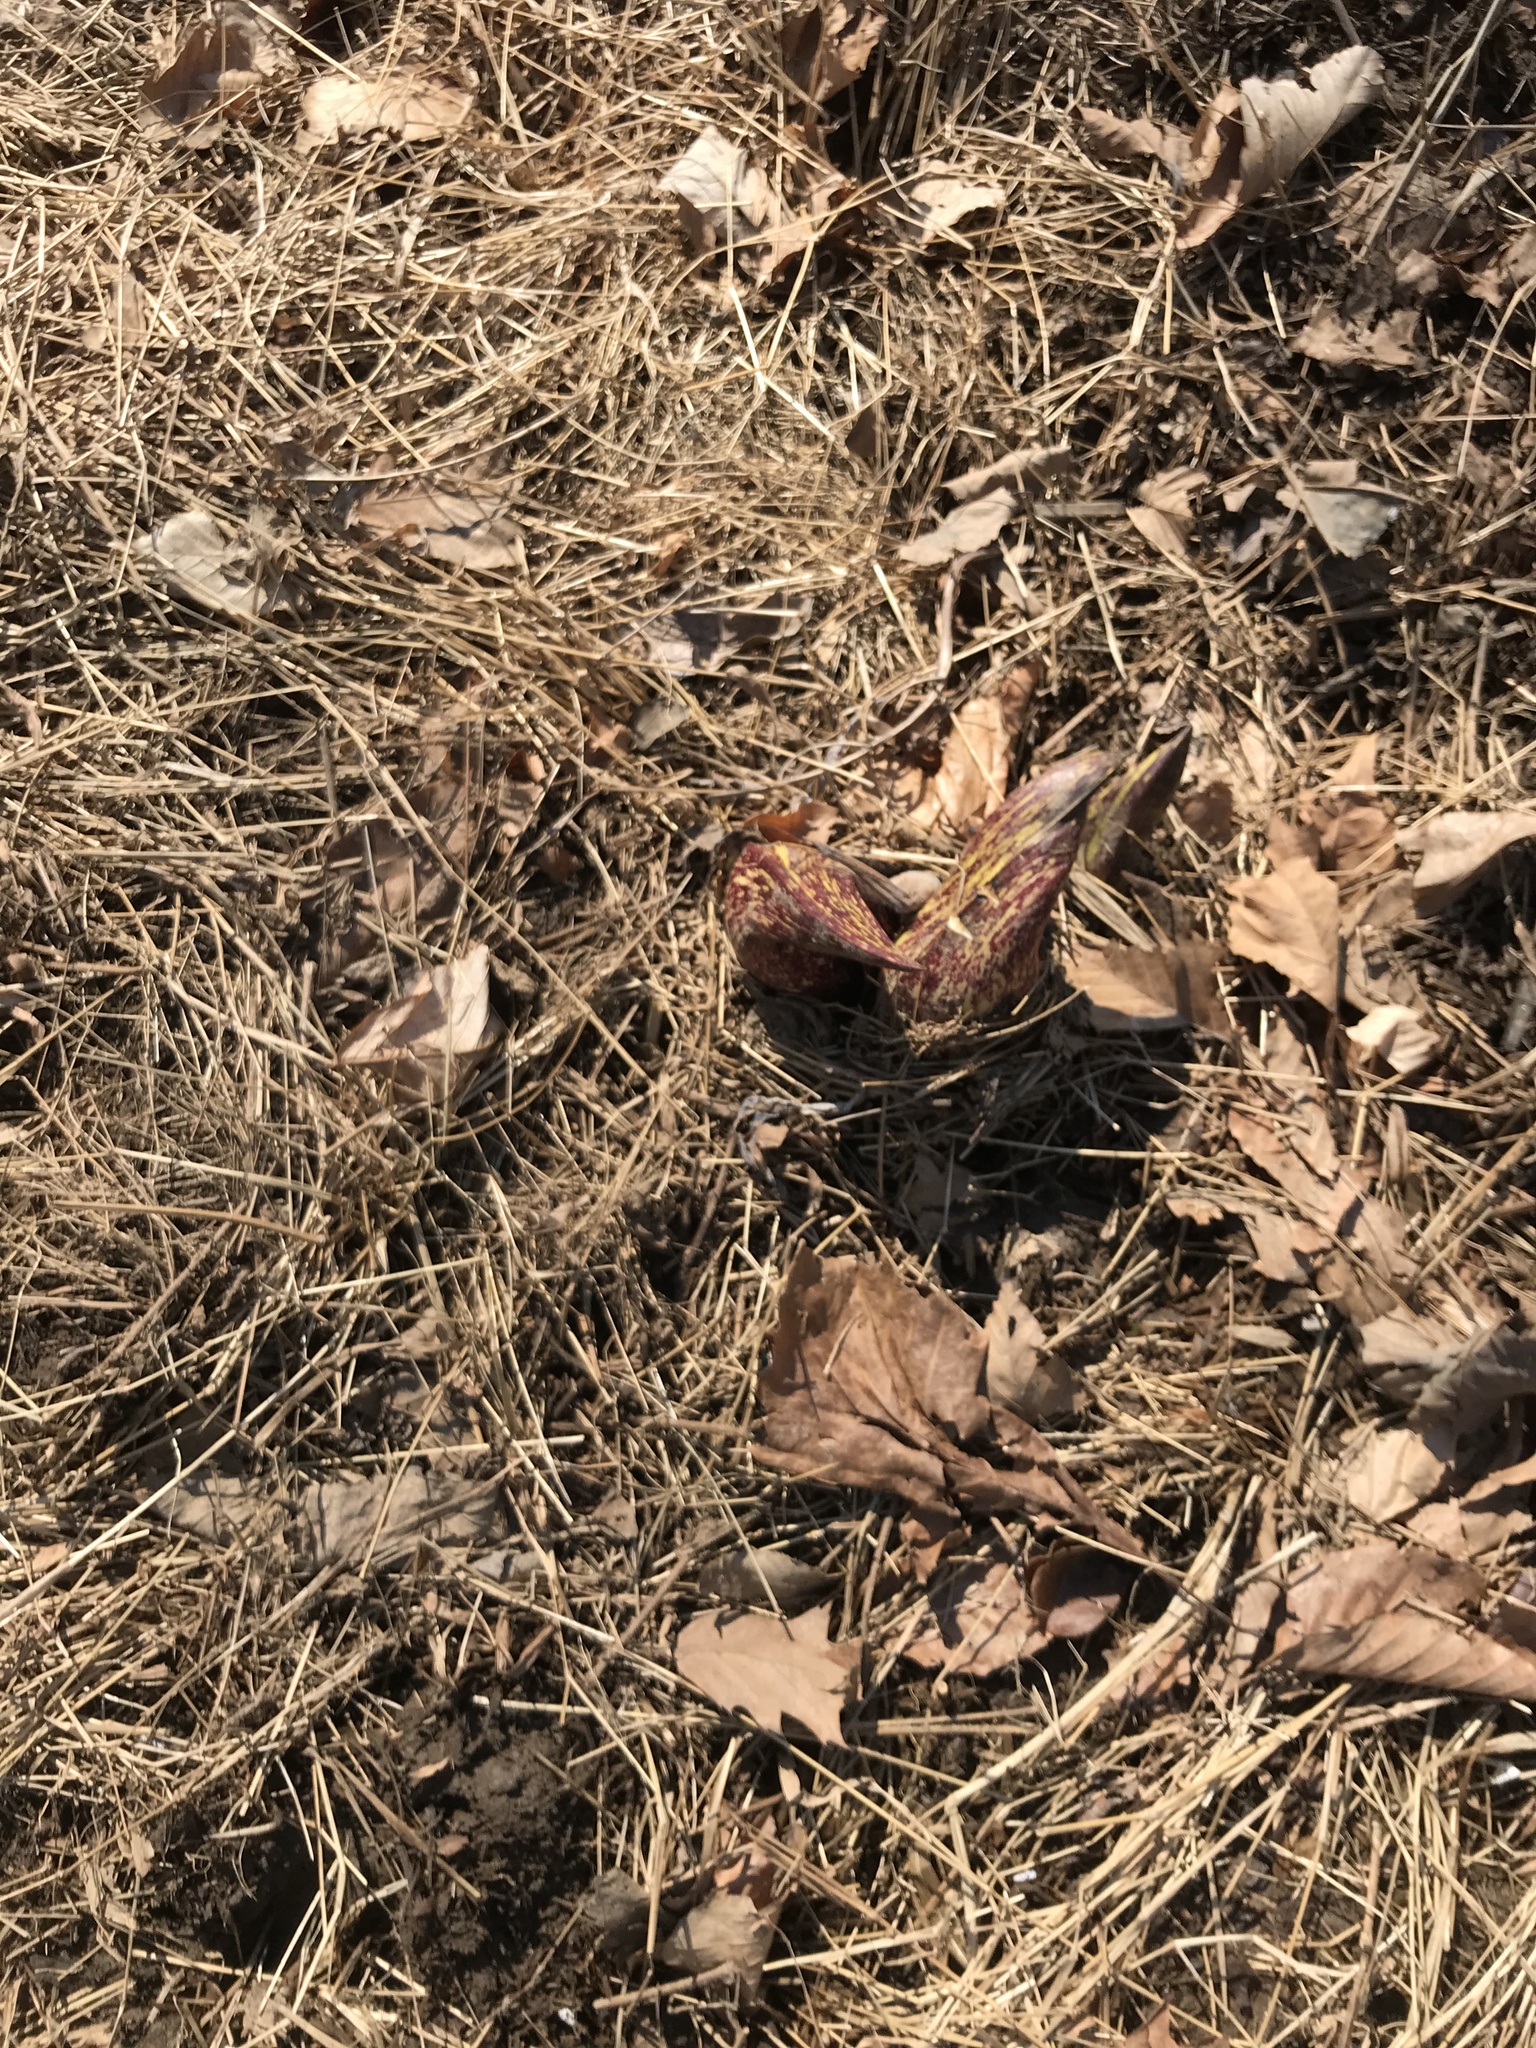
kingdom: Plantae
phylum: Tracheophyta
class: Liliopsida
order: Alismatales
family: Araceae
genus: Symplocarpus
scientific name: Symplocarpus foetidus
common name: Eastern skunk cabbage
